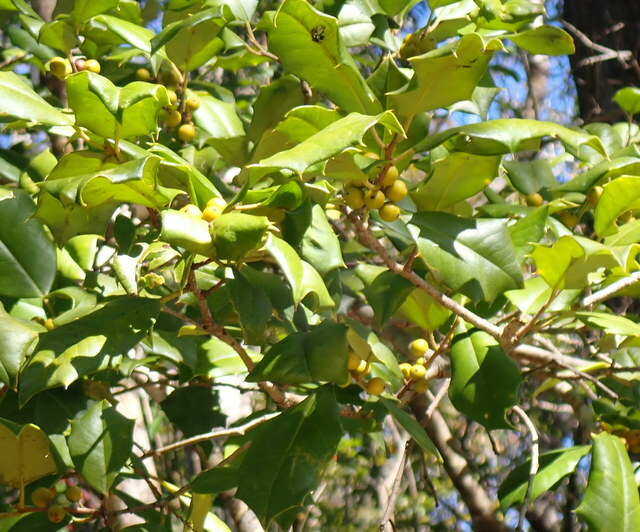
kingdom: Plantae
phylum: Tracheophyta
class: Magnoliopsida
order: Aquifoliales
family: Aquifoliaceae
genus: Ilex
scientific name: Ilex opaca
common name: American holly
